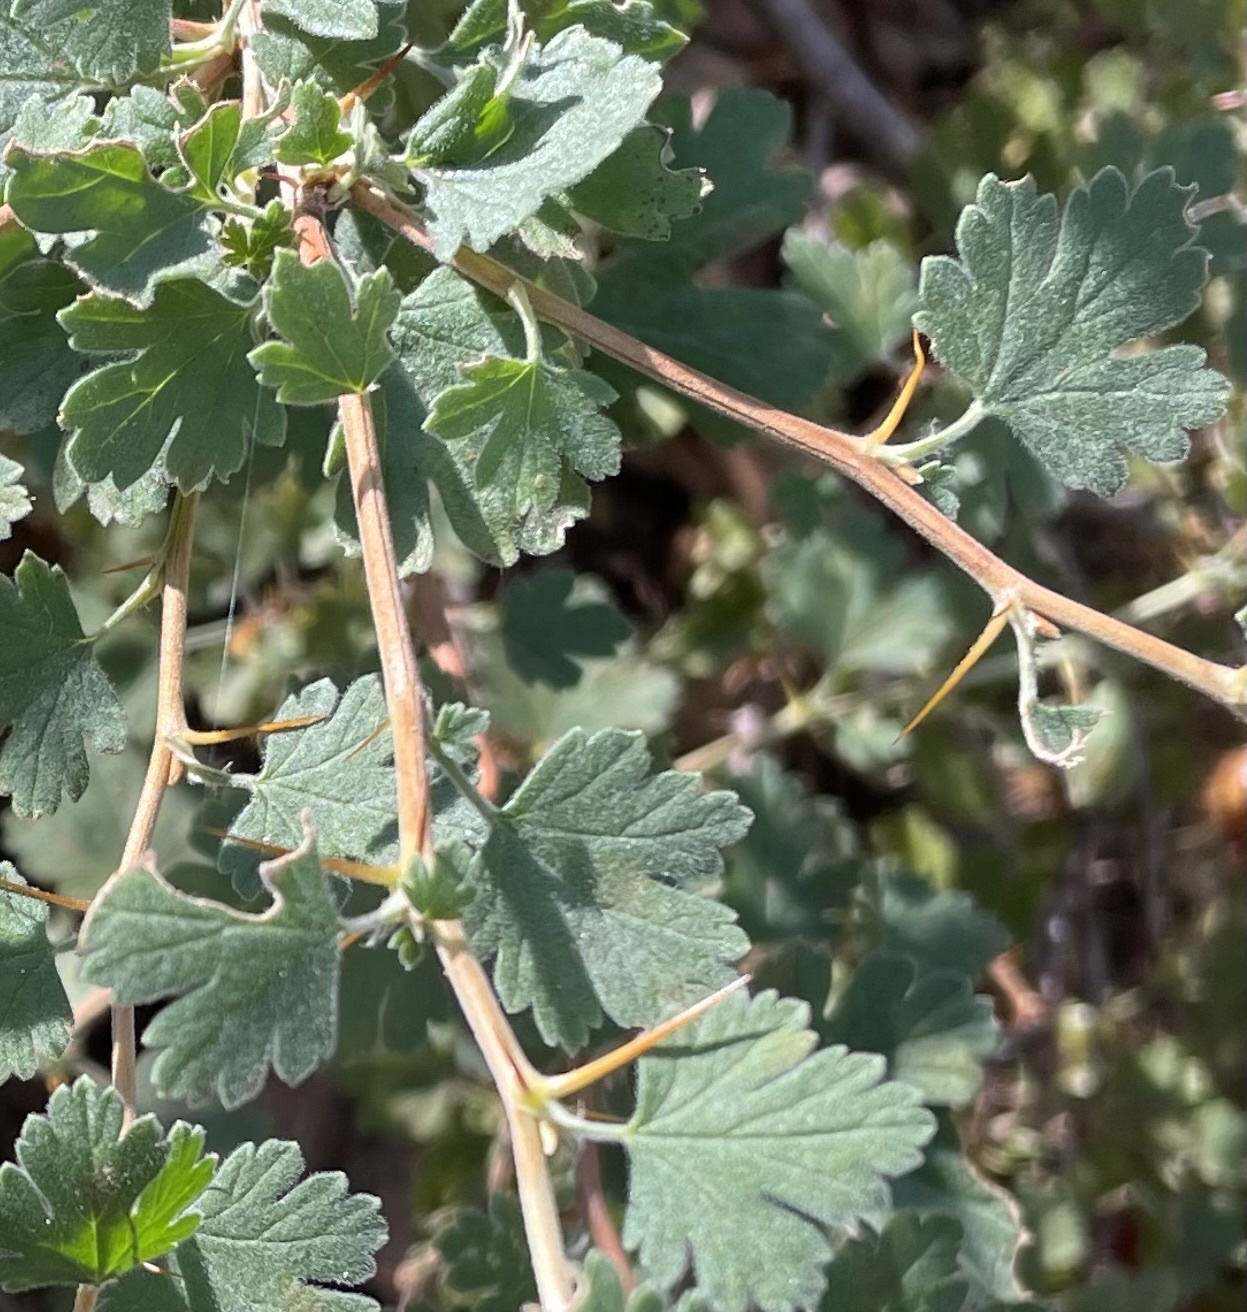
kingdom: Plantae
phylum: Tracheophyta
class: Magnoliopsida
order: Saxifragales
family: Grossulariaceae
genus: Ribes
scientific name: Ribes roezlii
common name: Sierra gooseberry
